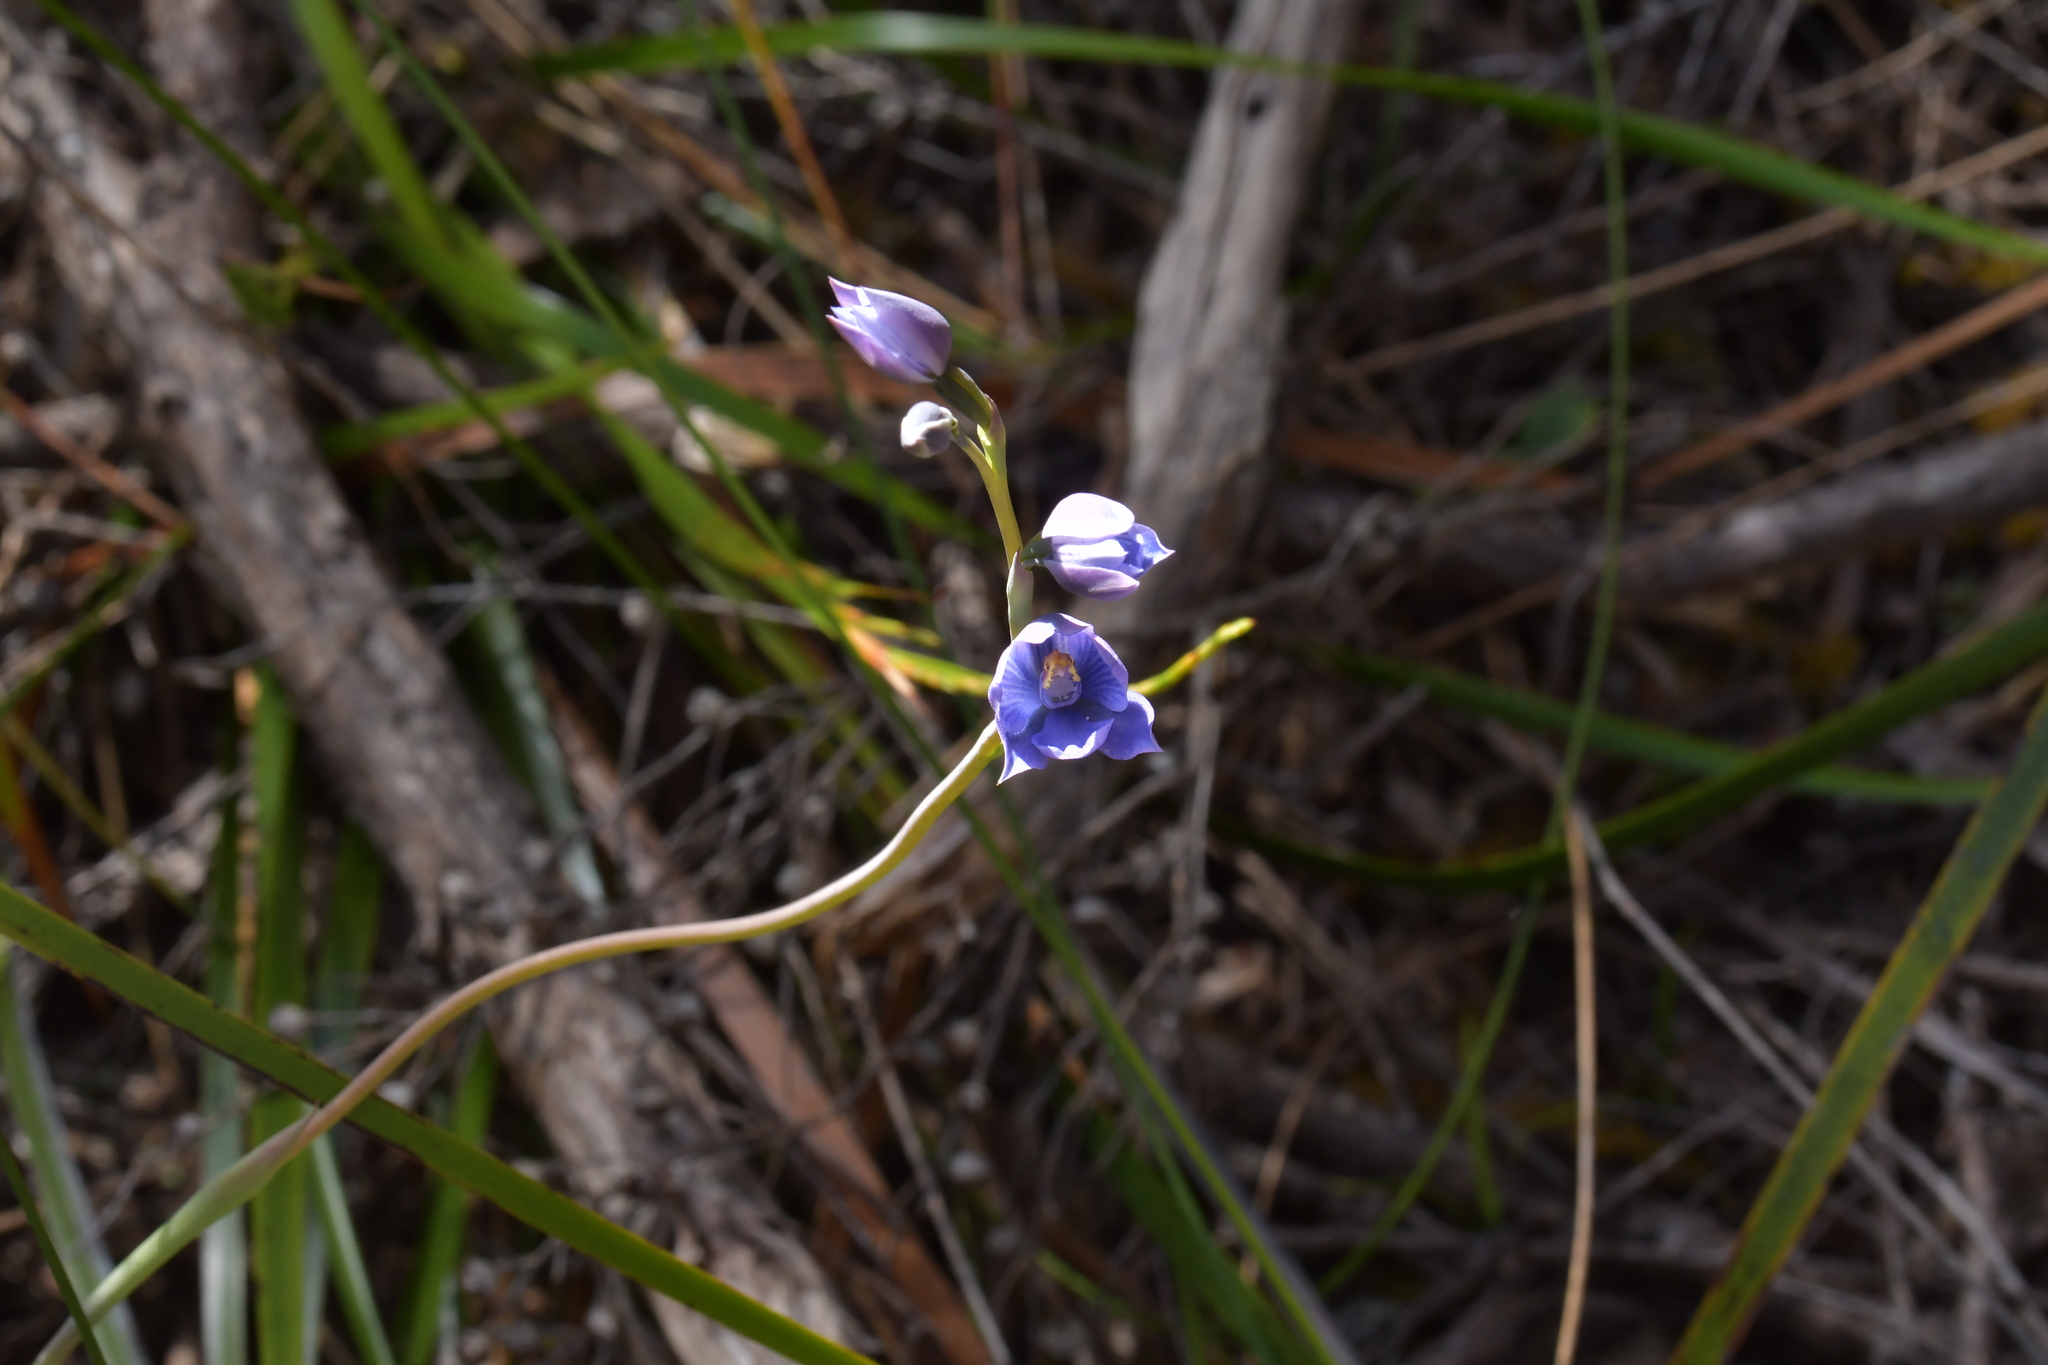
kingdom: Plantae
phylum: Tracheophyta
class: Liliopsida
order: Asparagales
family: Orchidaceae
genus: Thelymitra
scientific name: Thelymitra pulchella
